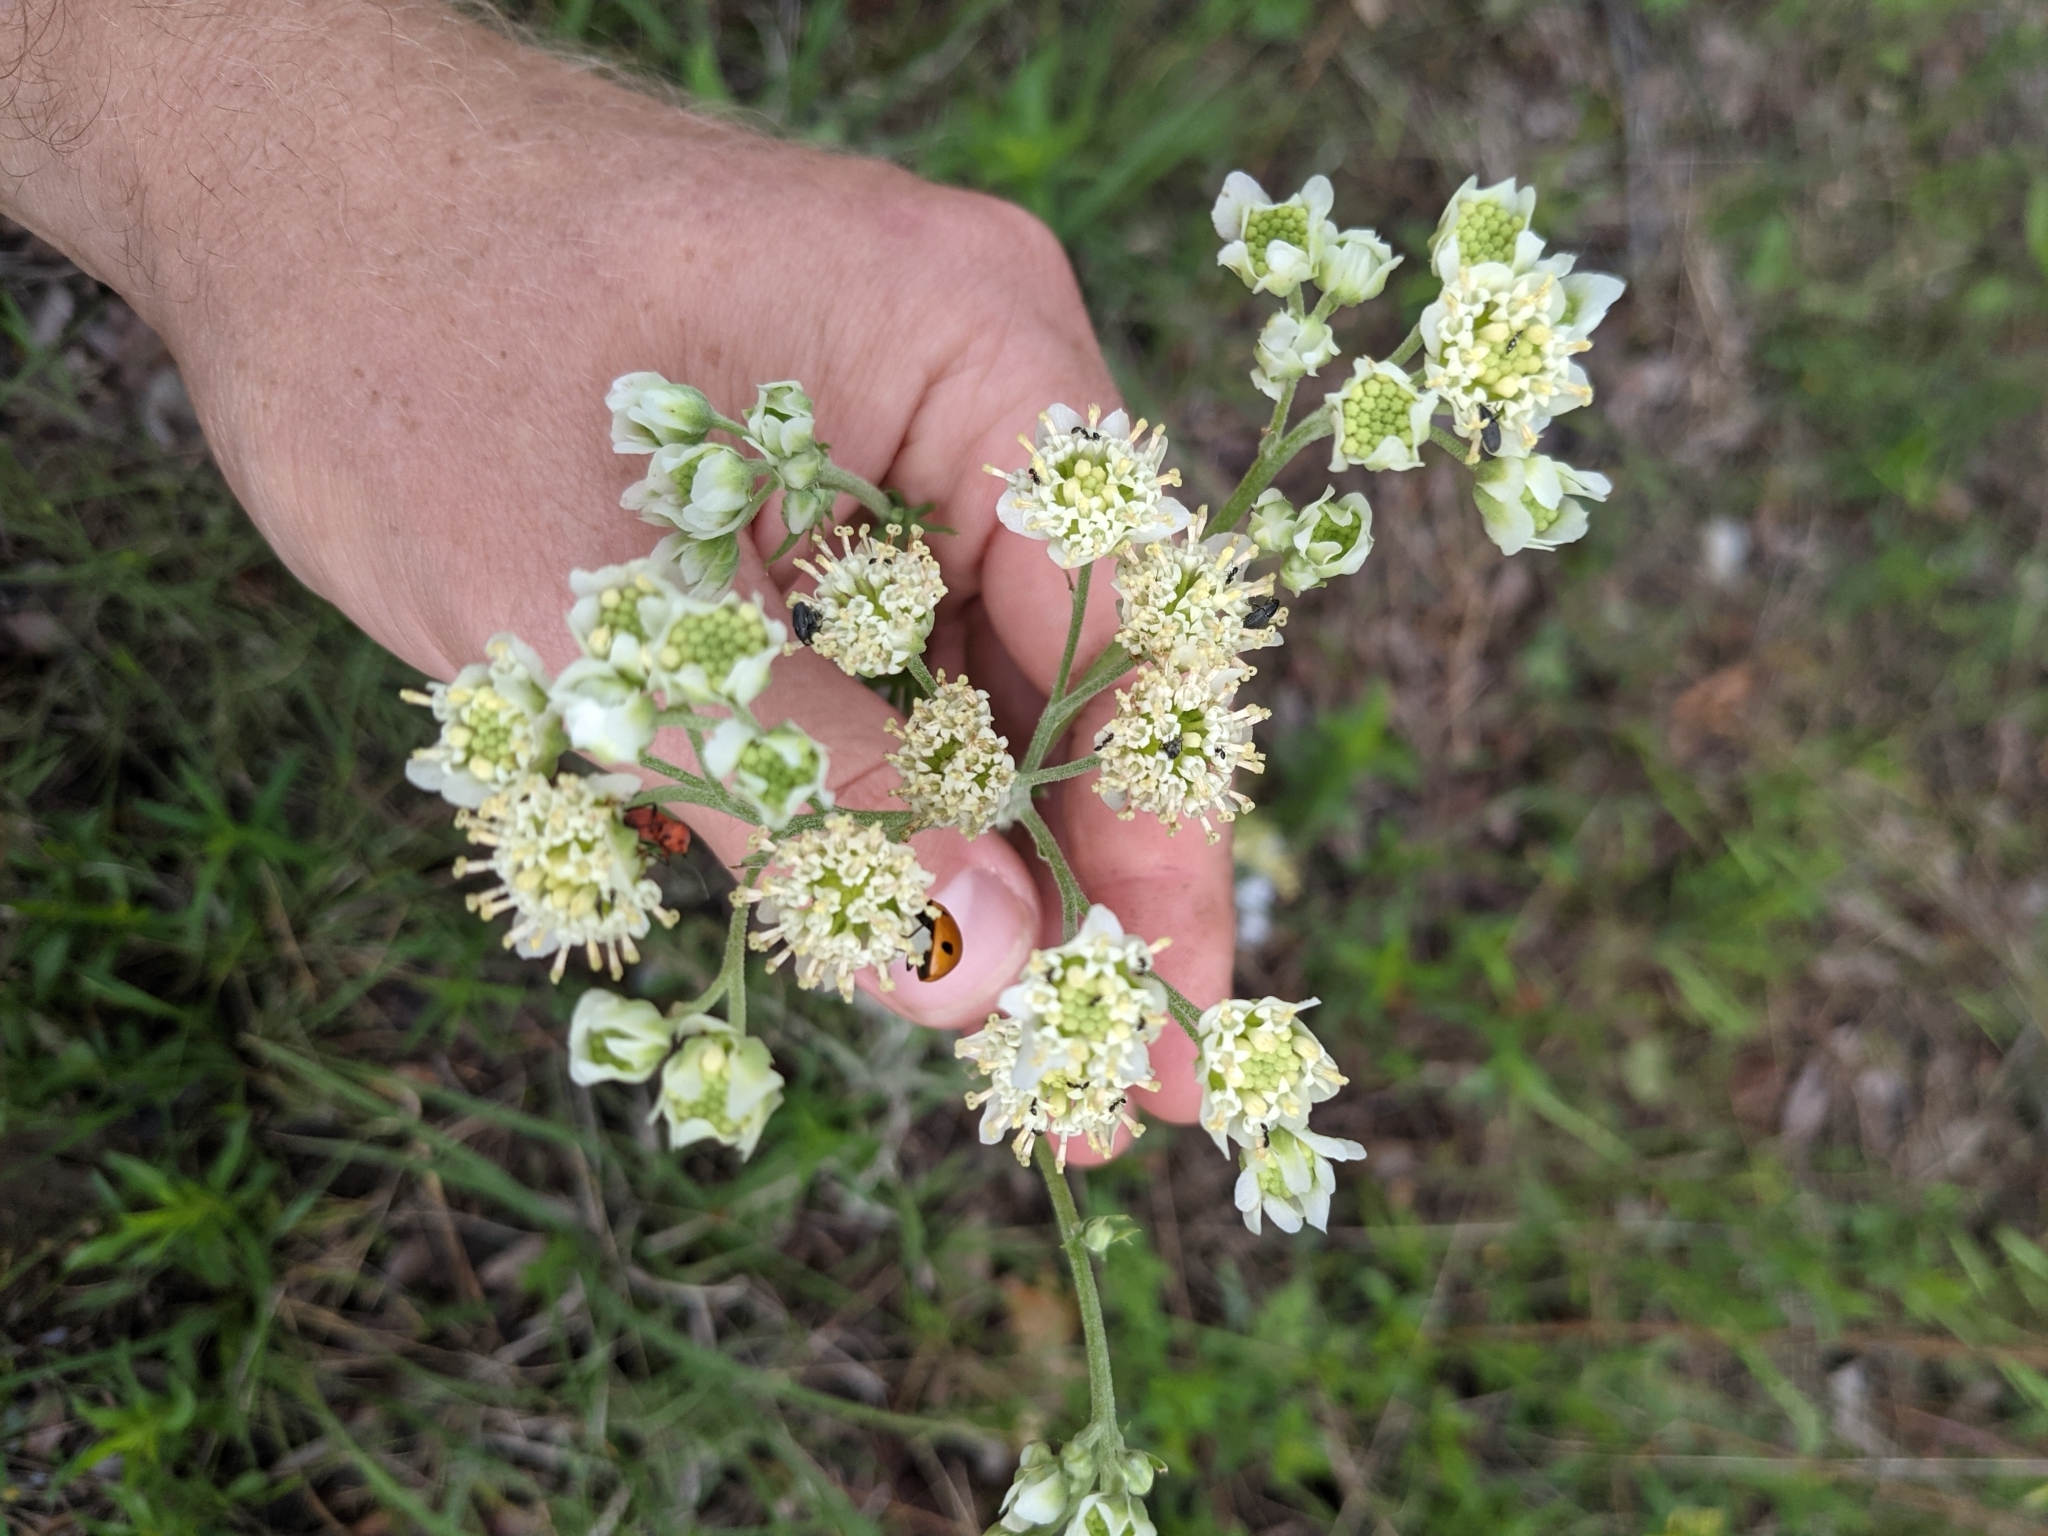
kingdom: Plantae
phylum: Tracheophyta
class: Magnoliopsida
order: Asterales
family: Asteraceae
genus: Hymenopappus
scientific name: Hymenopappus scabiosaeus
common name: Carolina woollywhite
